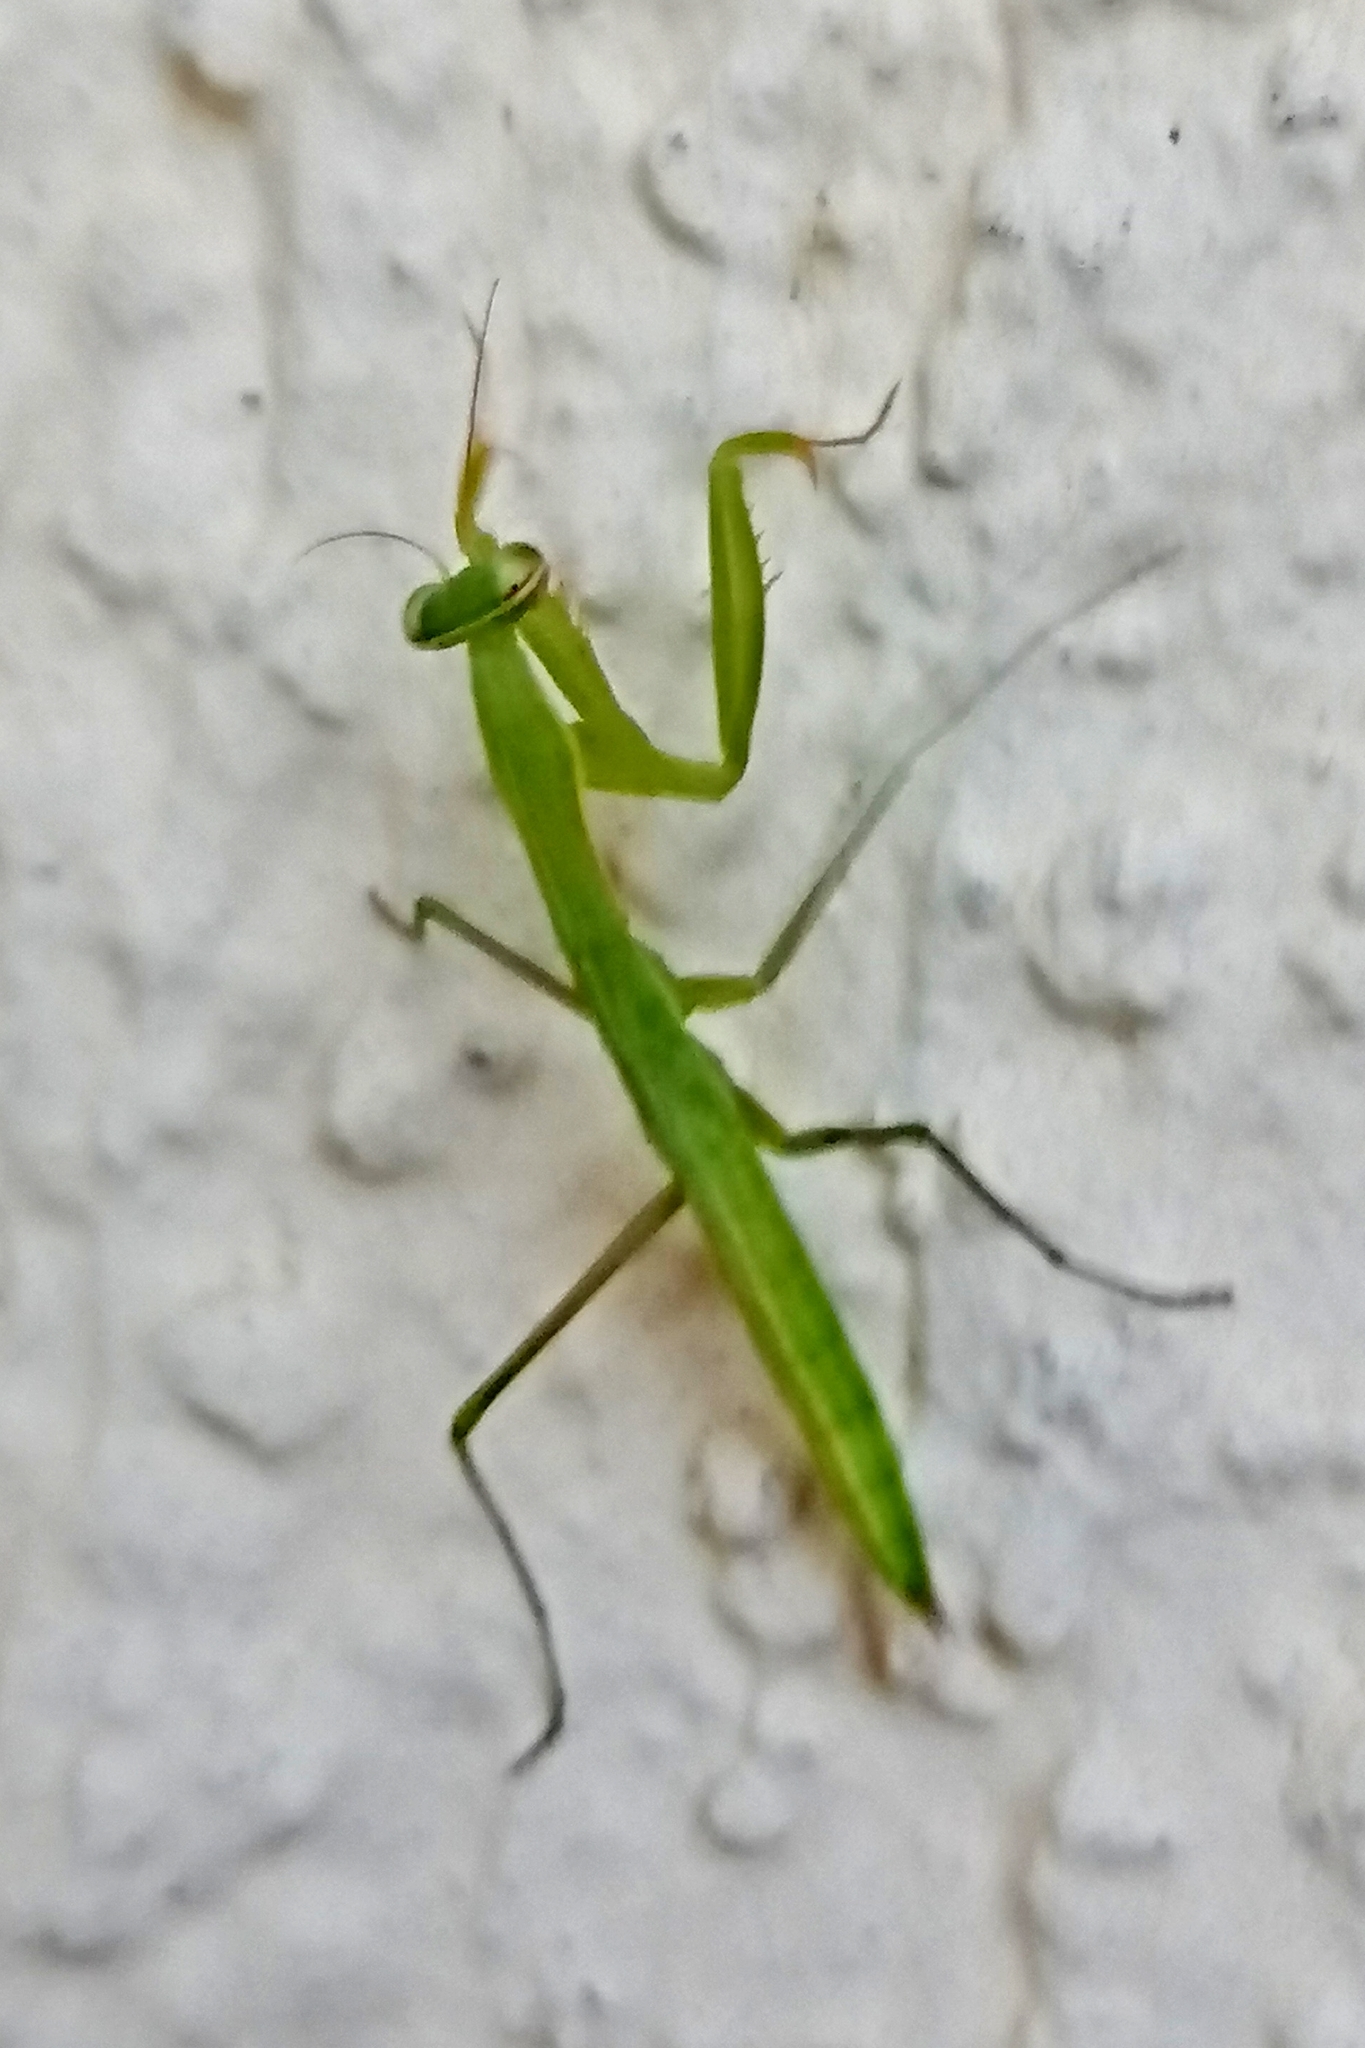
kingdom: Animalia
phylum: Arthropoda
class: Insecta
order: Mantodea
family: Mantidae
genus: Mantis
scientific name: Mantis religiosa
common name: Praying mantis
